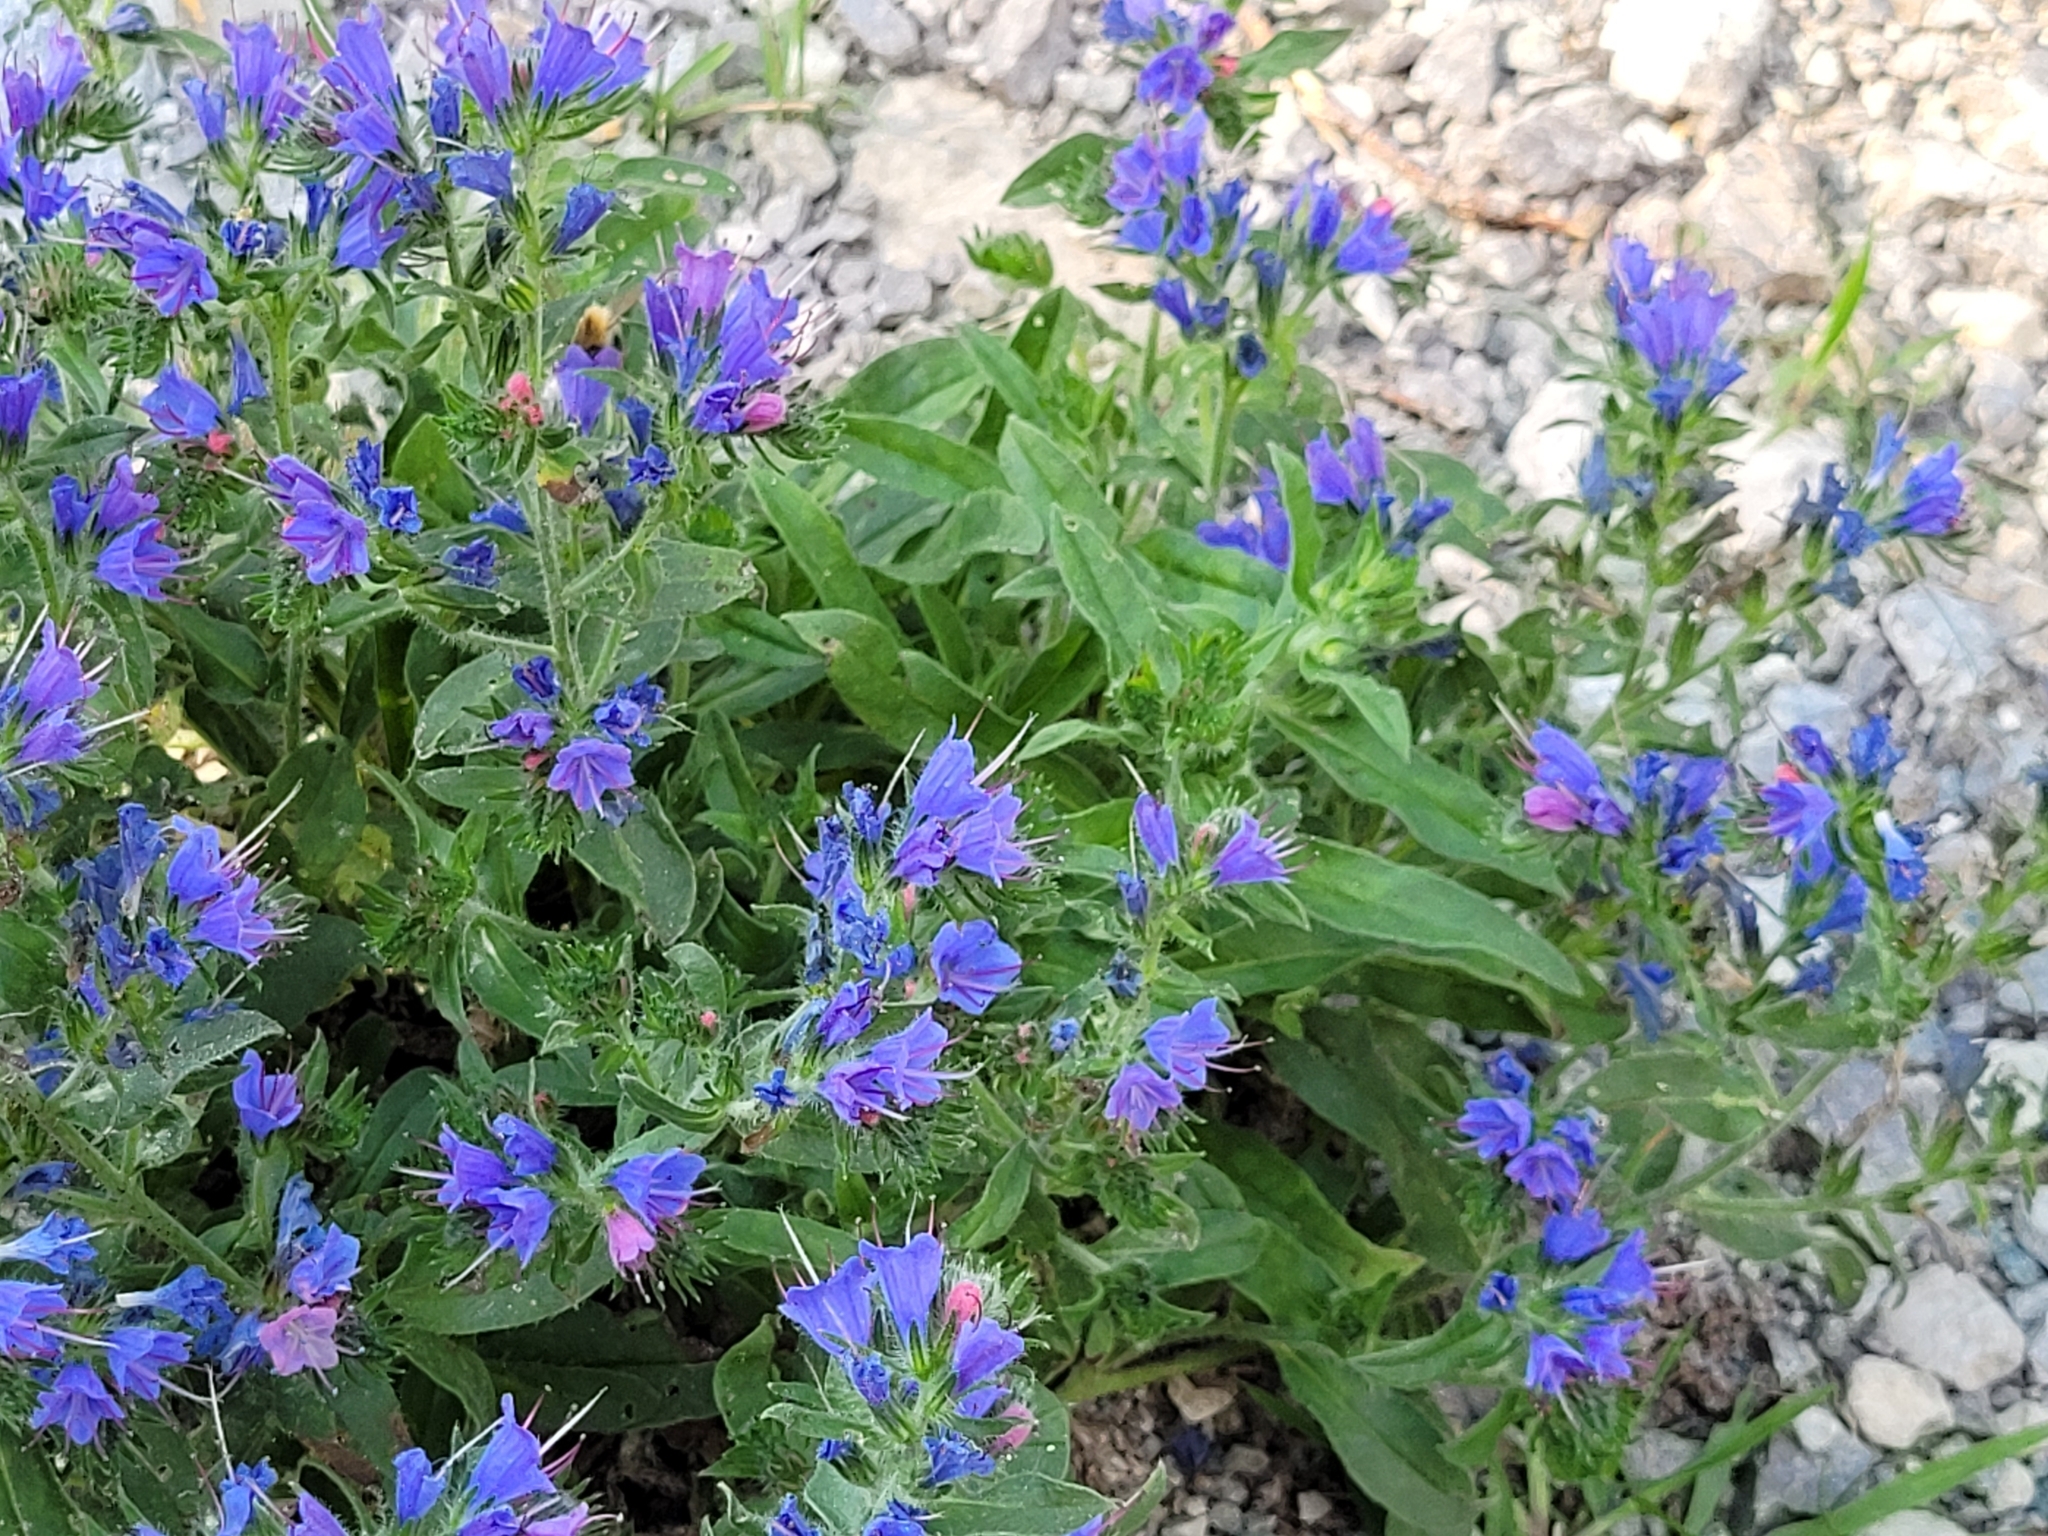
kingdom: Plantae
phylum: Tracheophyta
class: Magnoliopsida
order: Boraginales
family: Boraginaceae
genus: Echium
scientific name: Echium vulgare
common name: Common viper's bugloss
